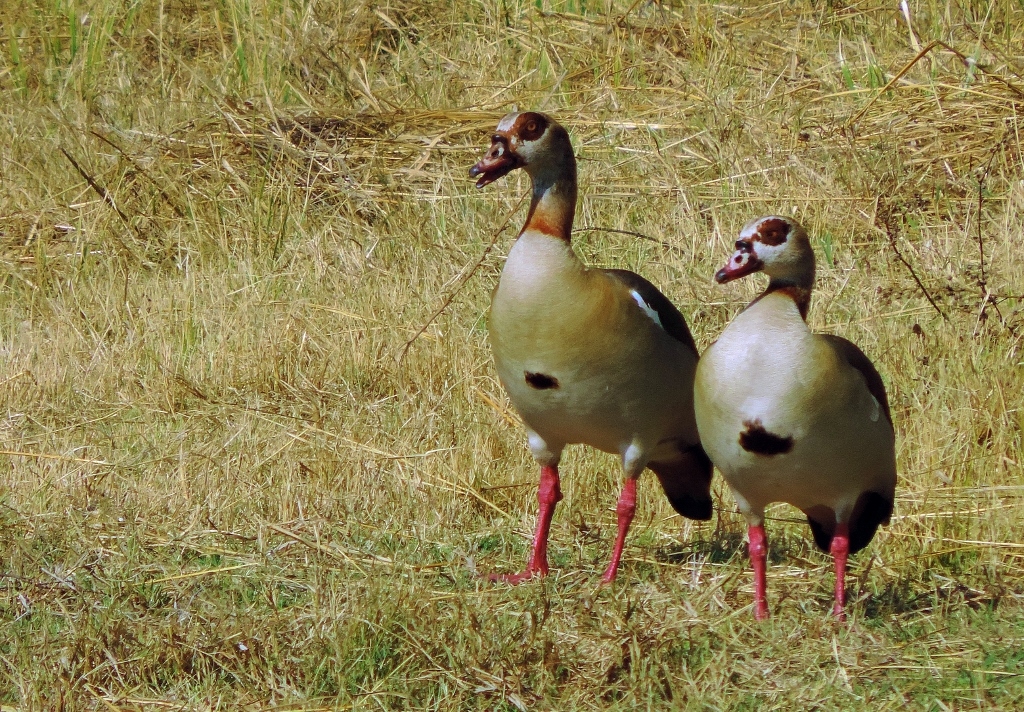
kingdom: Animalia
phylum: Chordata
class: Aves
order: Anseriformes
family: Anatidae
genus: Alopochen
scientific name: Alopochen aegyptiaca
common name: Egyptian goose
